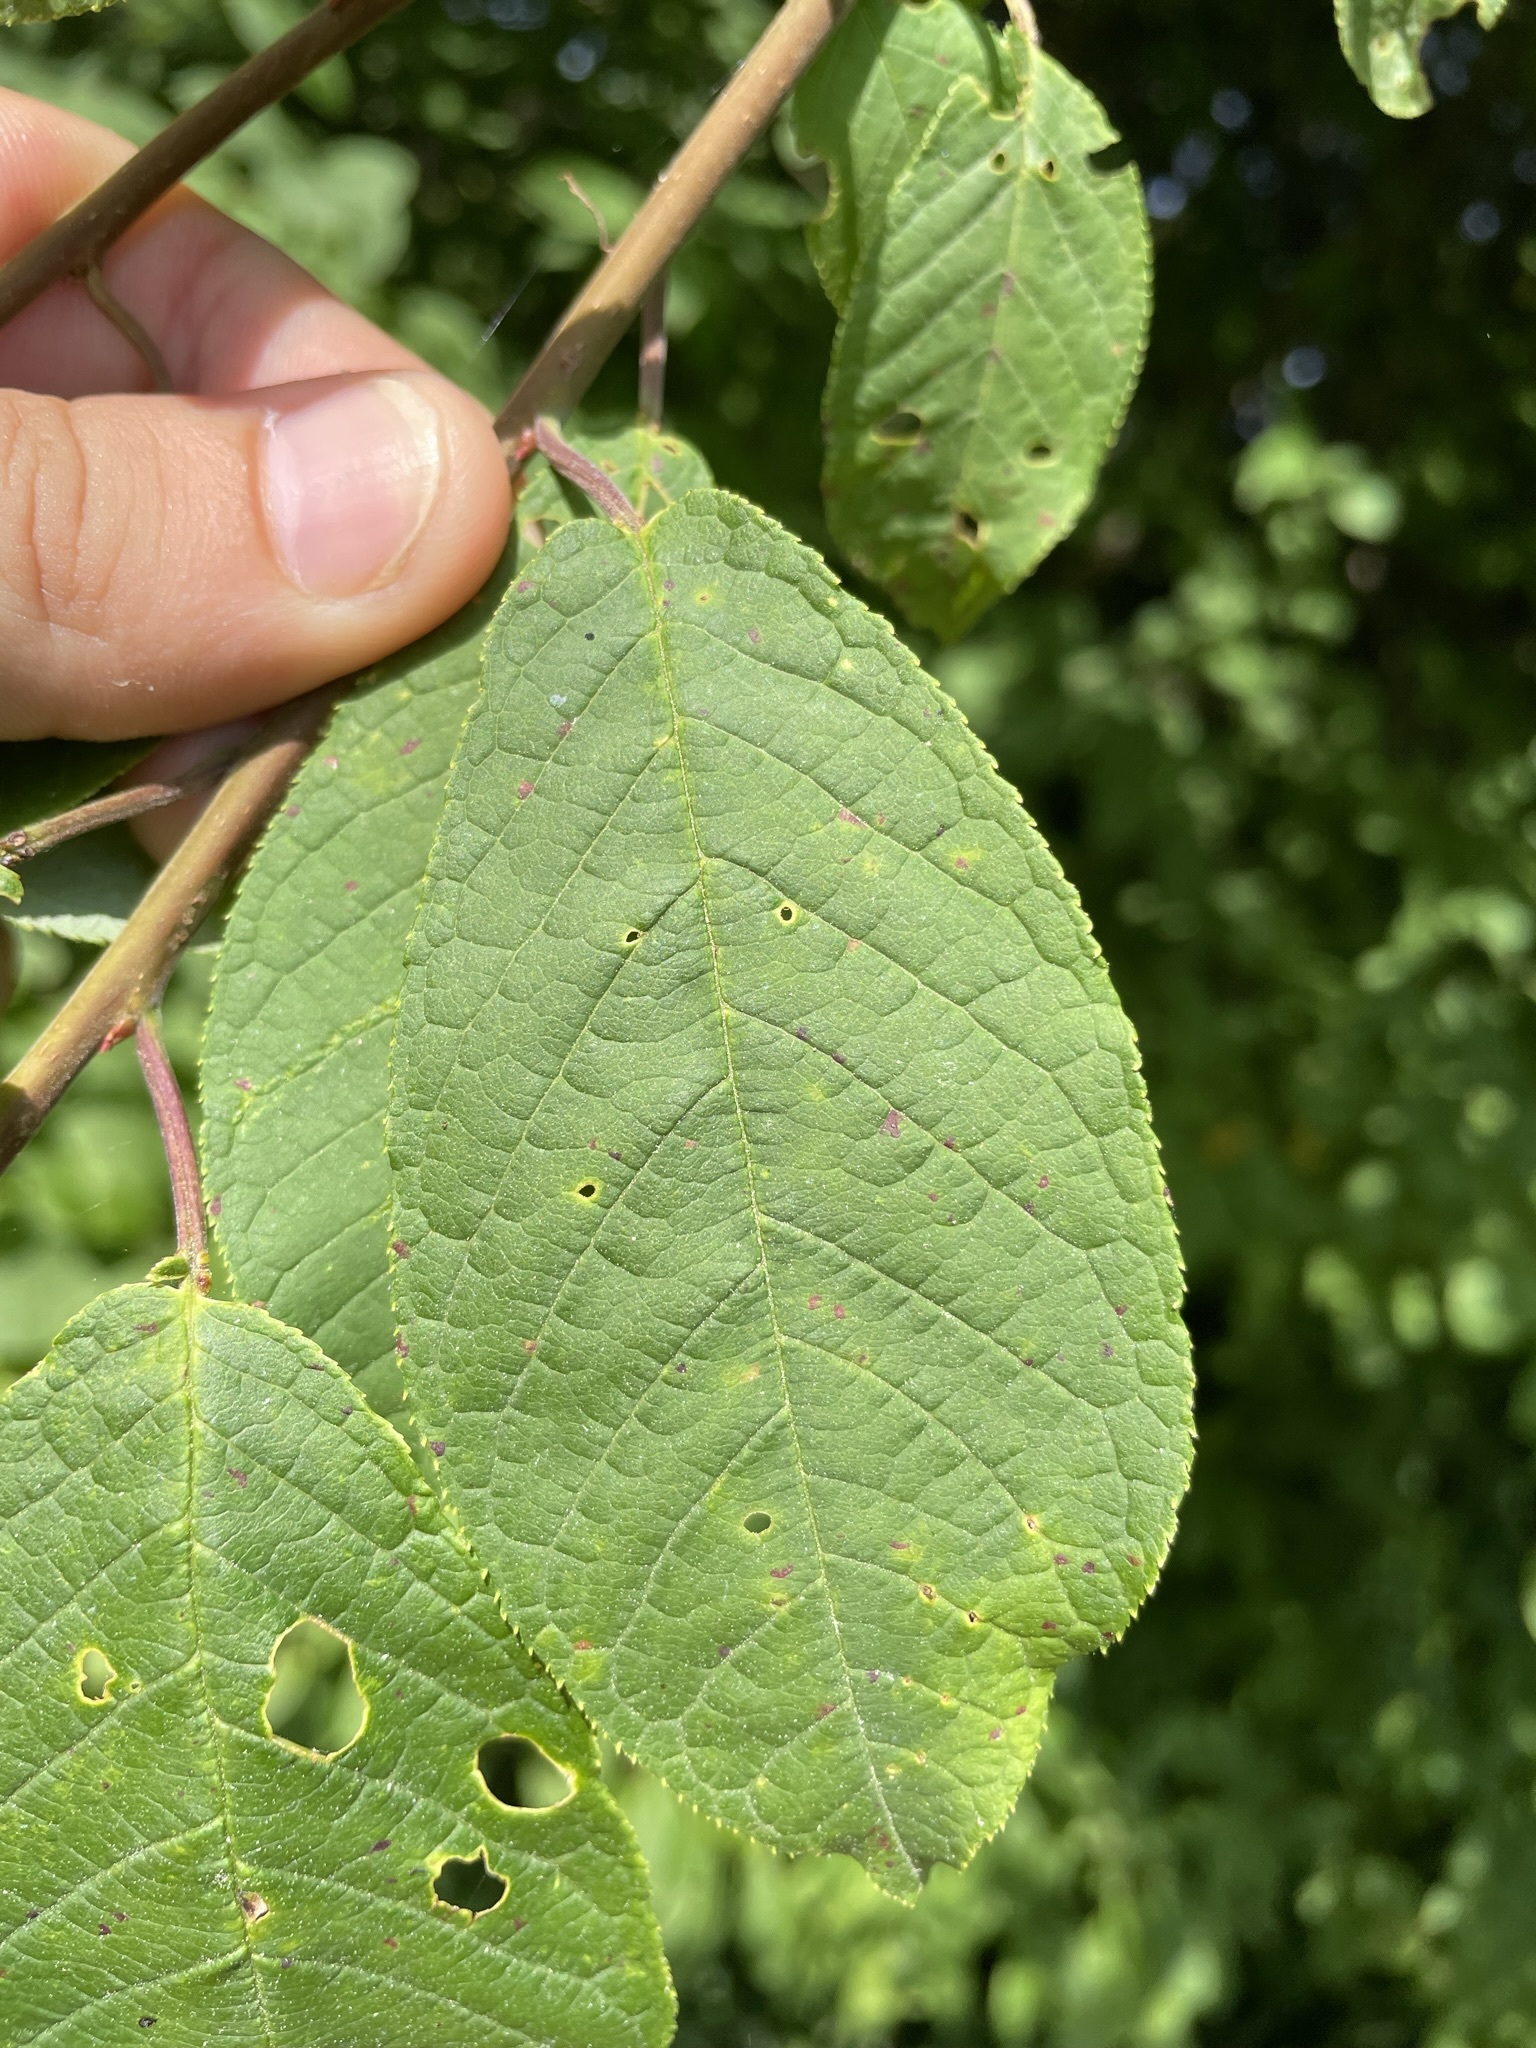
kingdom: Plantae
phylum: Tracheophyta
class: Magnoliopsida
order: Rosales
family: Rosaceae
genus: Prunus
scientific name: Prunus padus
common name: Bird cherry
